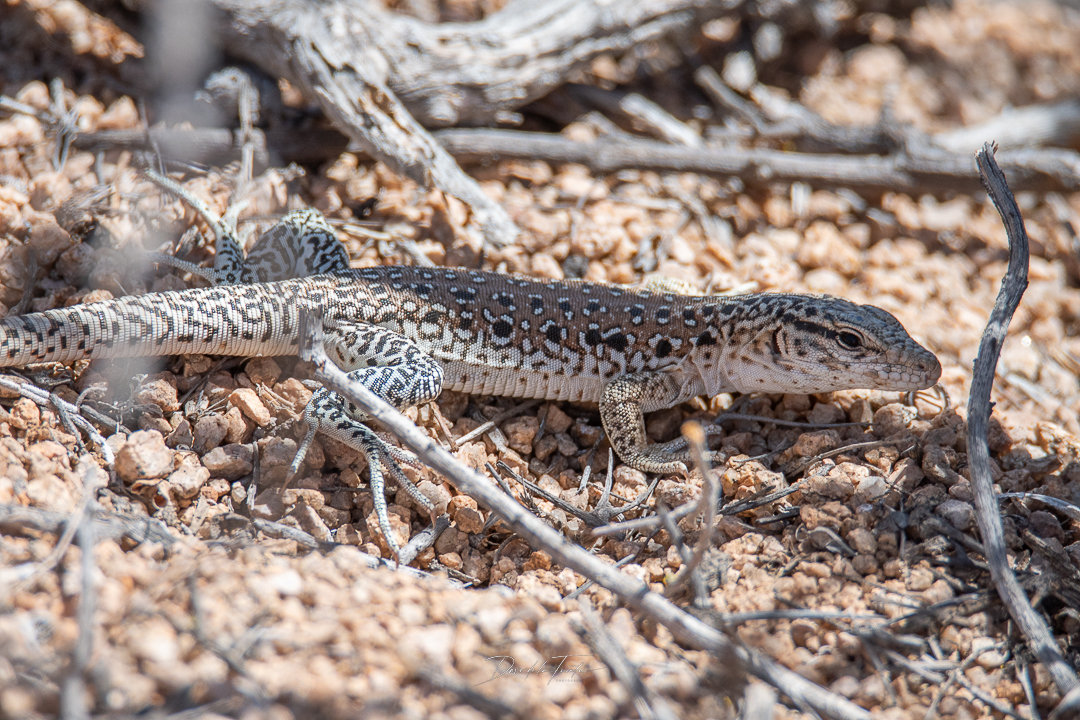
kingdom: Animalia
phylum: Chordata
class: Squamata
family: Teiidae
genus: Callopistes
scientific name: Callopistes maculatus
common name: Spotted false monitor
